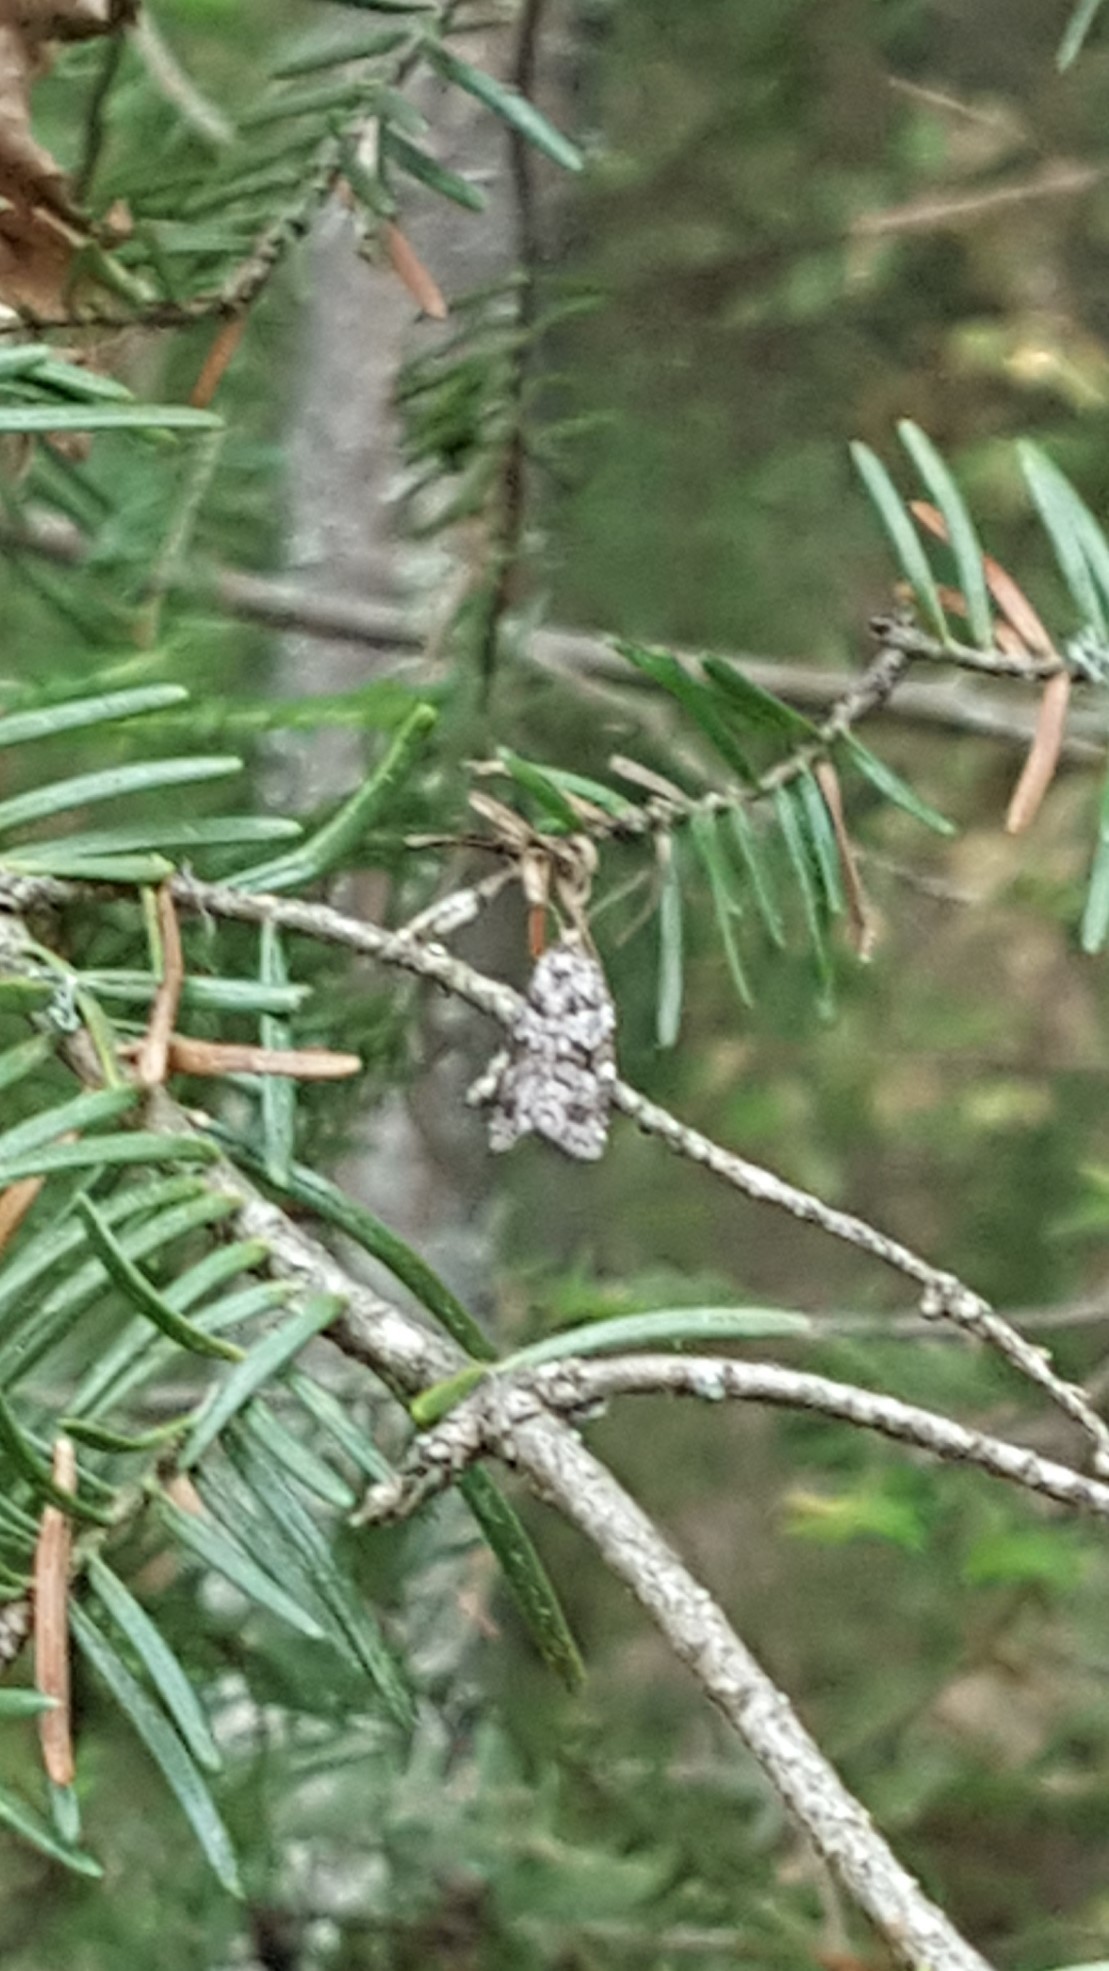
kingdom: Animalia
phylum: Arthropoda
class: Insecta
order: Lepidoptera
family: Tortricidae
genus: Choristoneura
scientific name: Choristoneura fumiferana
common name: Spruce budworm
